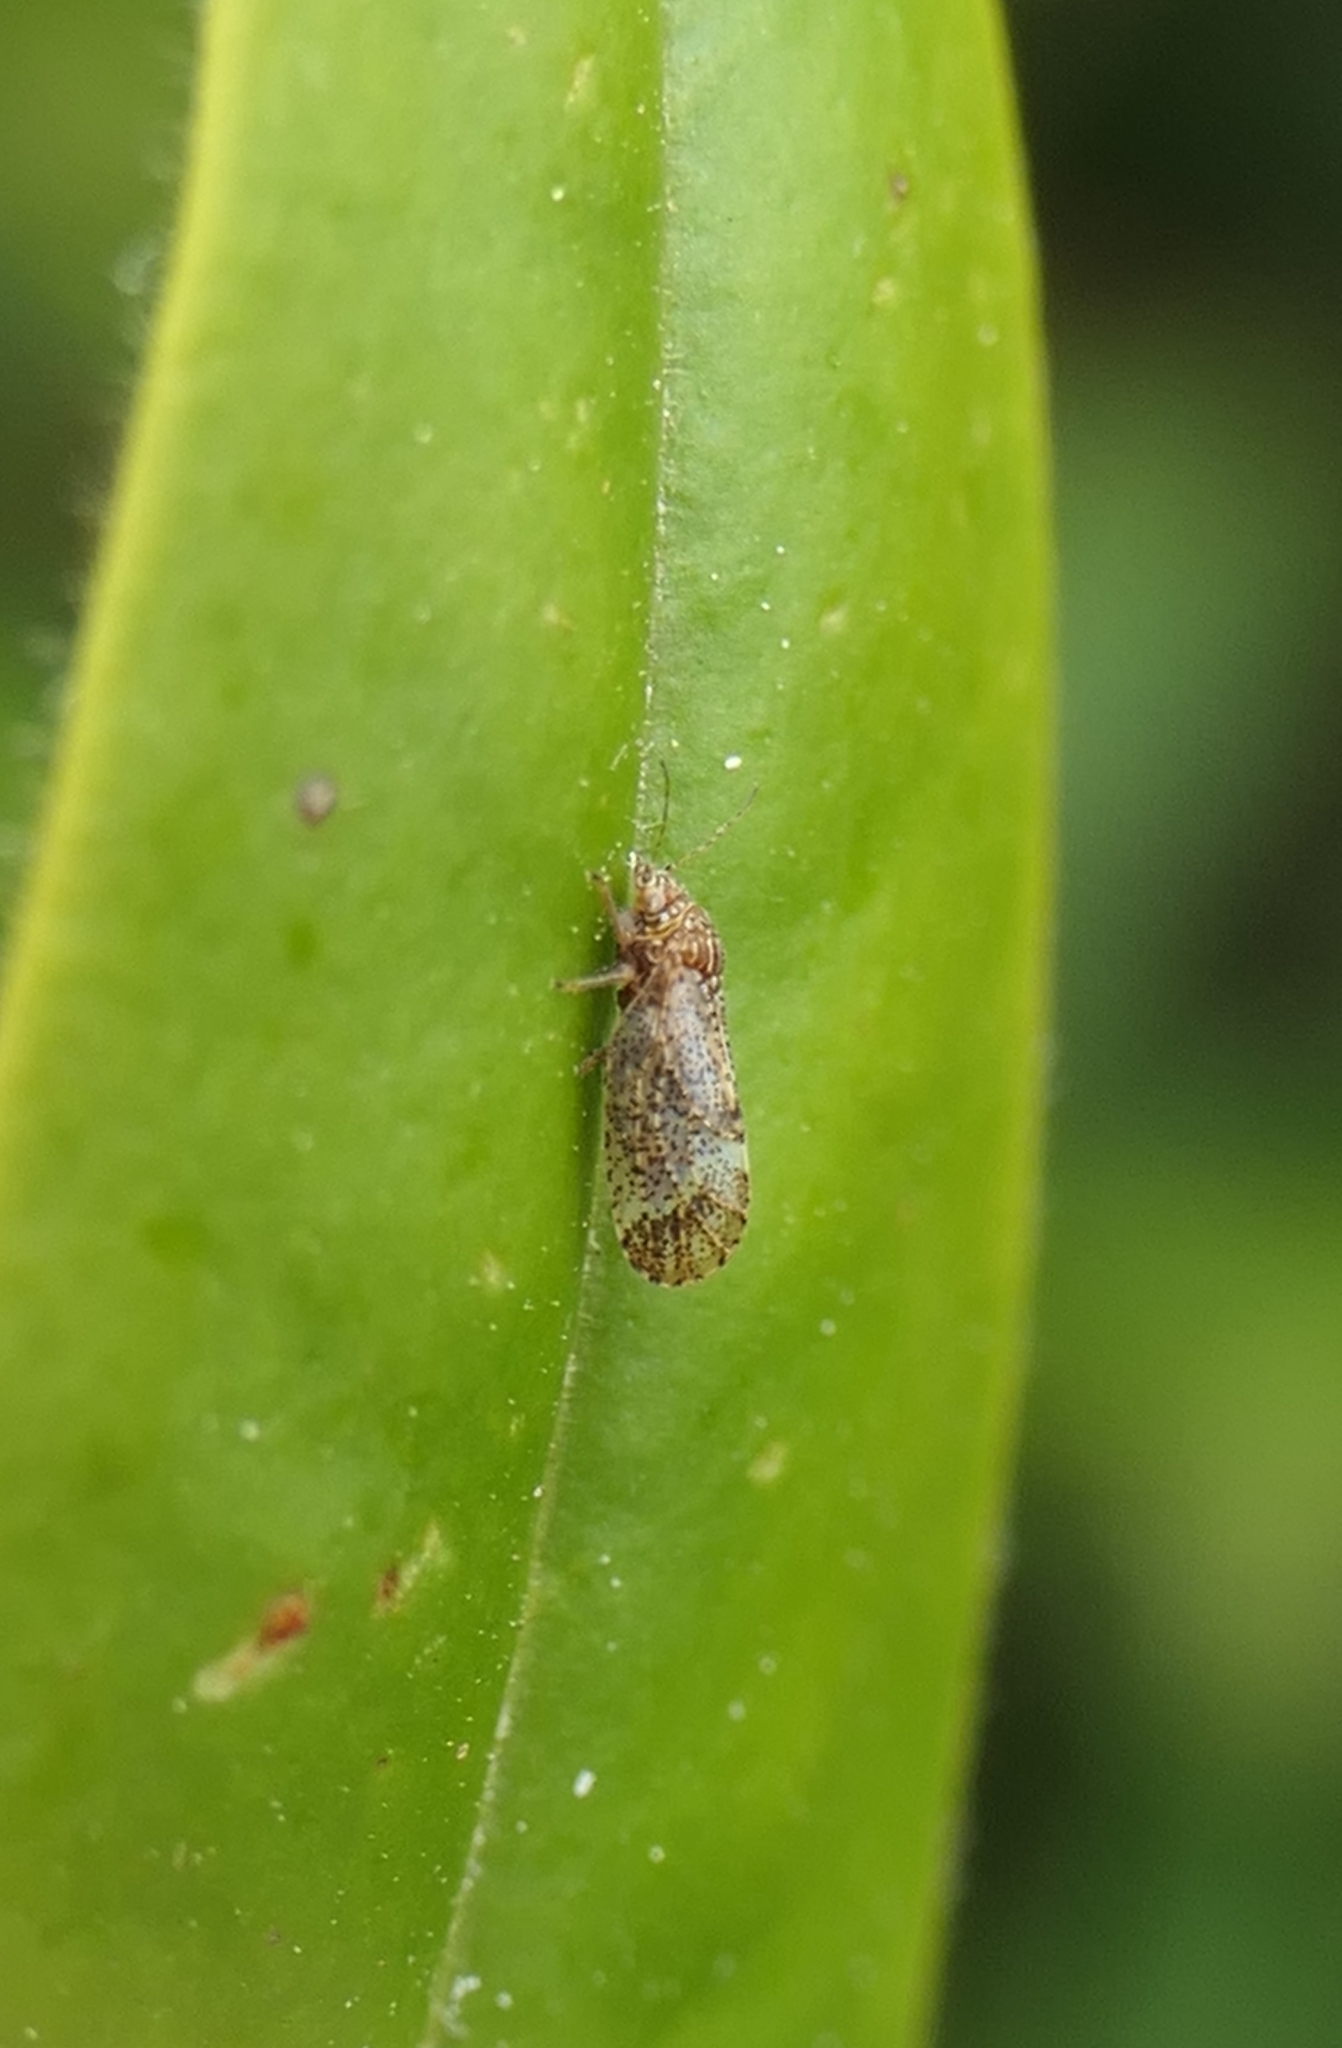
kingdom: Animalia
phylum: Arthropoda
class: Insecta
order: Hemiptera
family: Psyllidae
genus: Acizzia
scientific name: Acizzia apicalis
